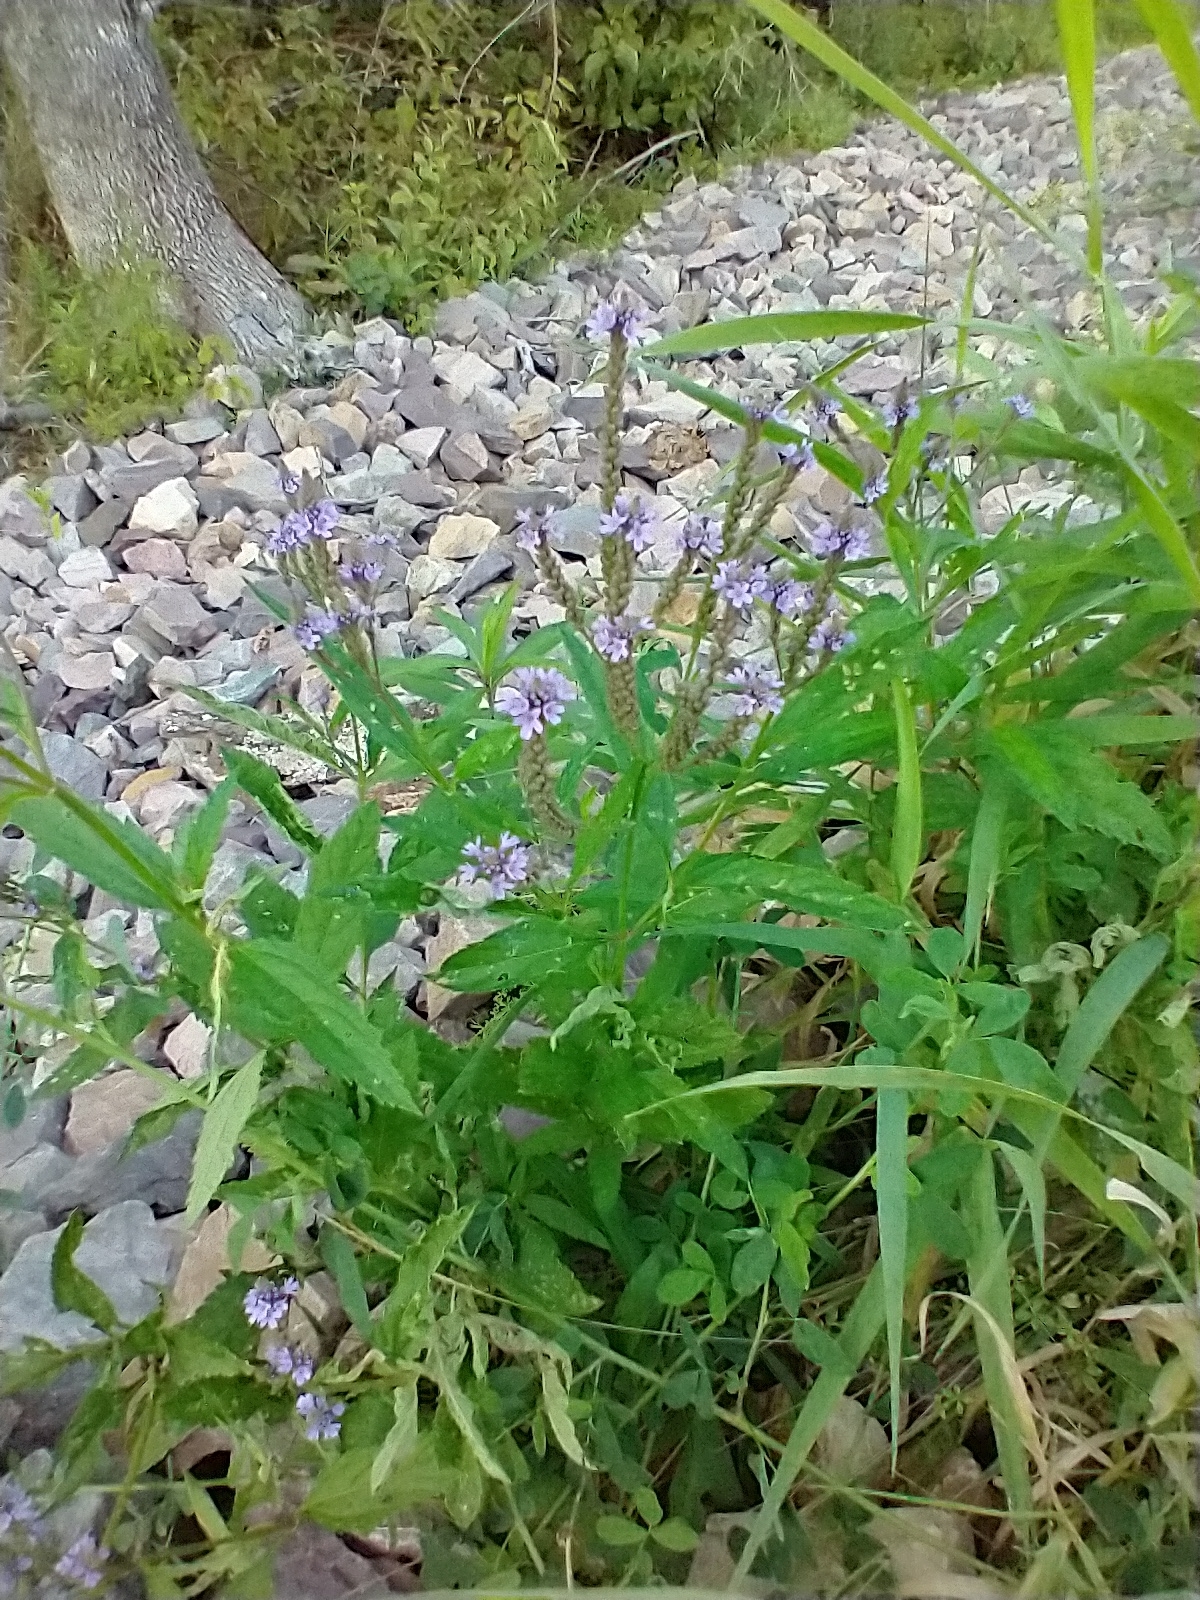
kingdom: Plantae
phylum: Tracheophyta
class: Magnoliopsida
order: Lamiales
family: Verbenaceae
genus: Verbena
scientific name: Verbena hastata
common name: American blue vervain
